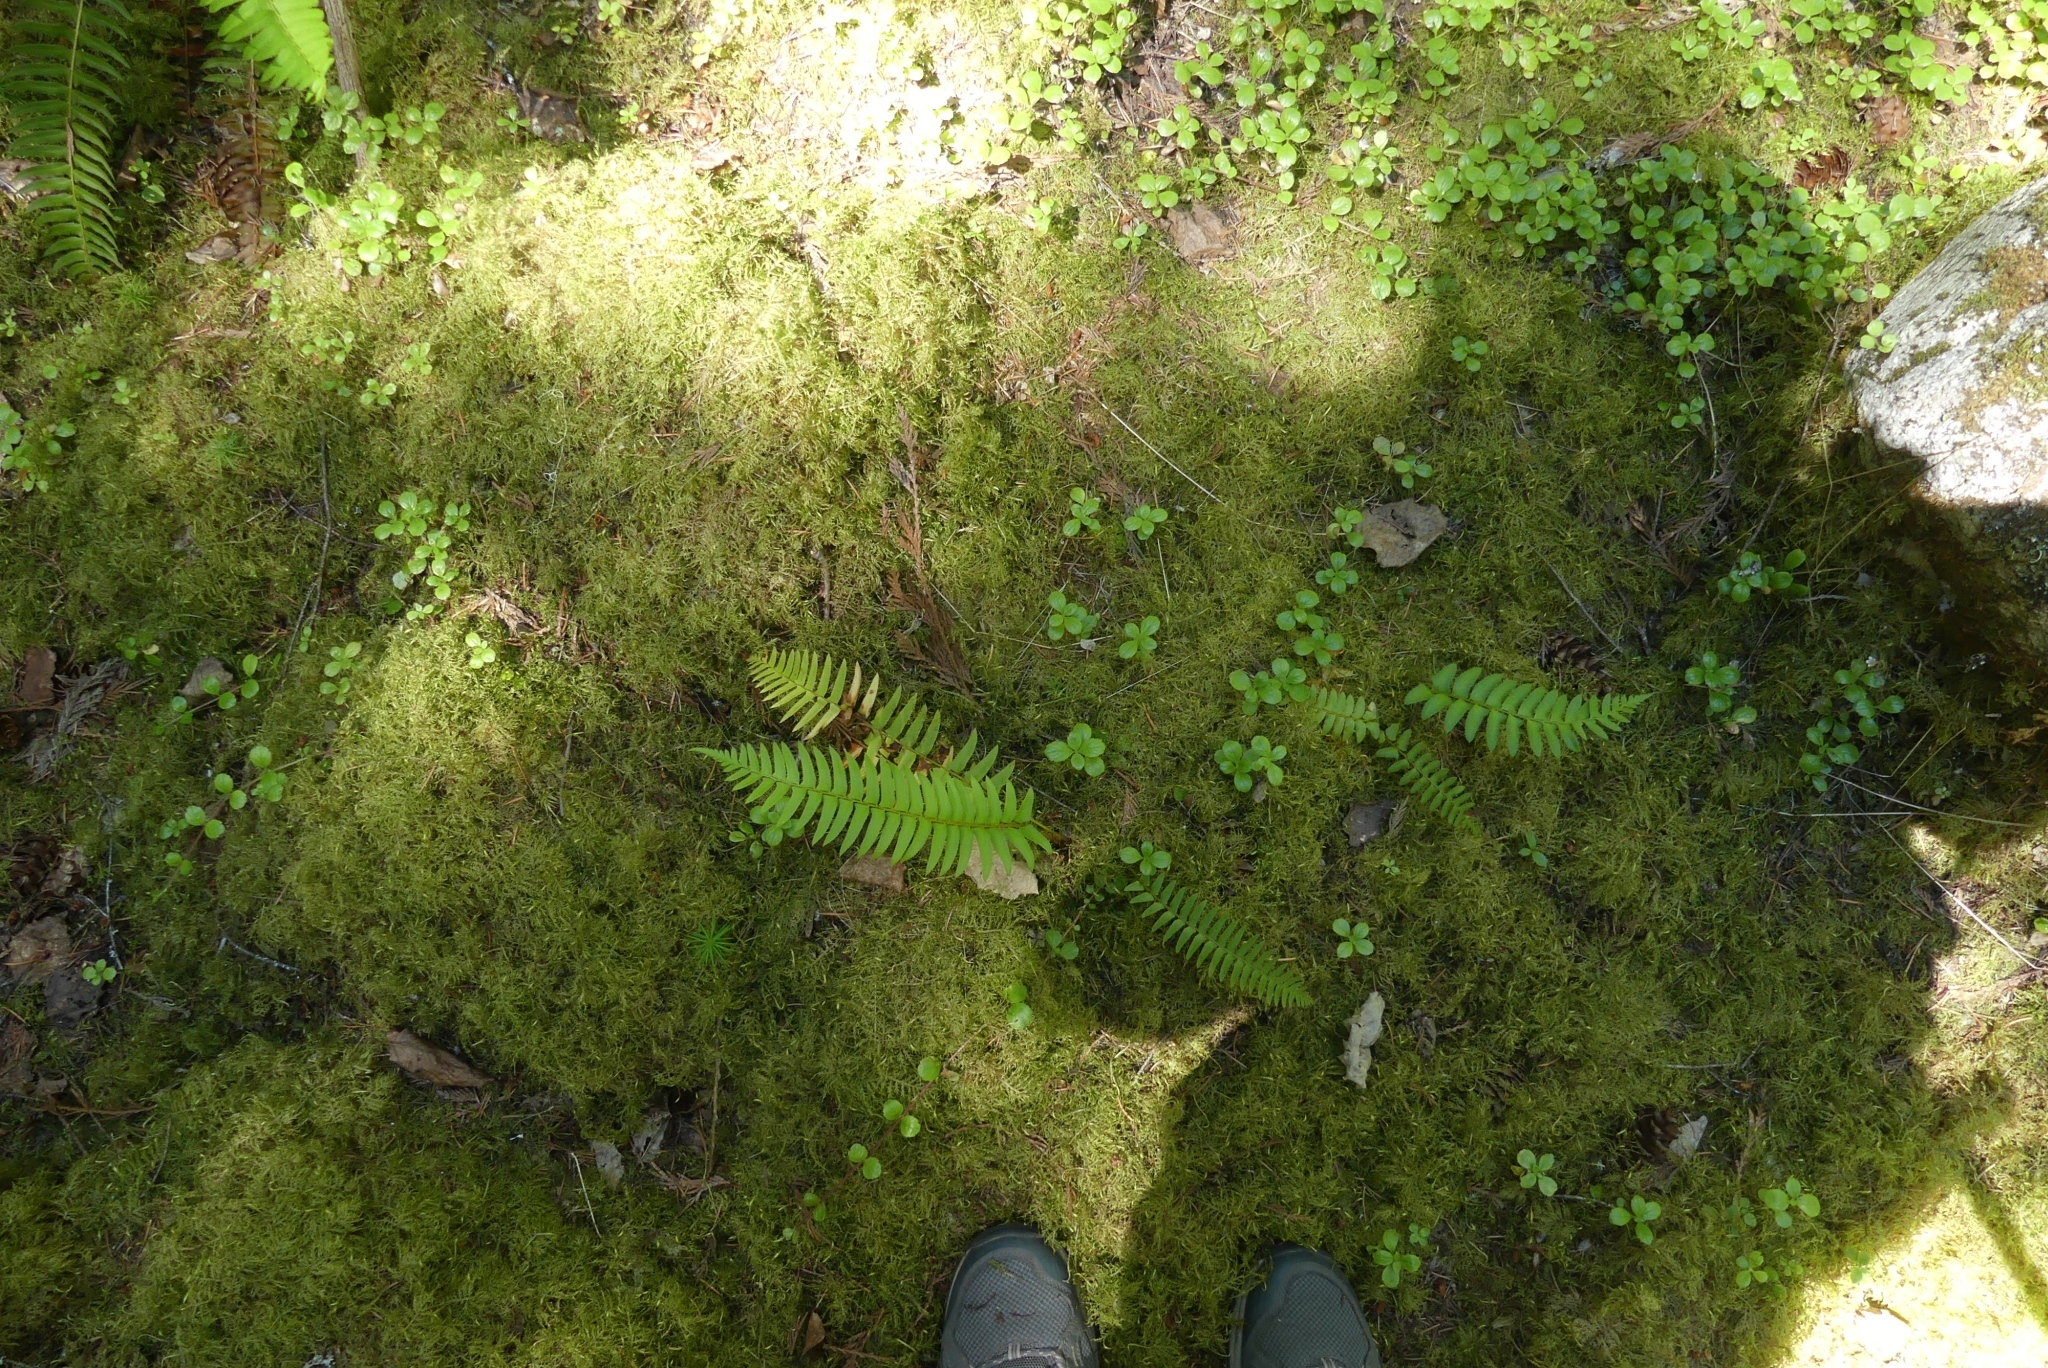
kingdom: Plantae
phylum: Tracheophyta
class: Polypodiopsida
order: Polypodiales
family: Dryopteridaceae
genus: Polystichum
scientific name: Polystichum munitum
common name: Western sword-fern
